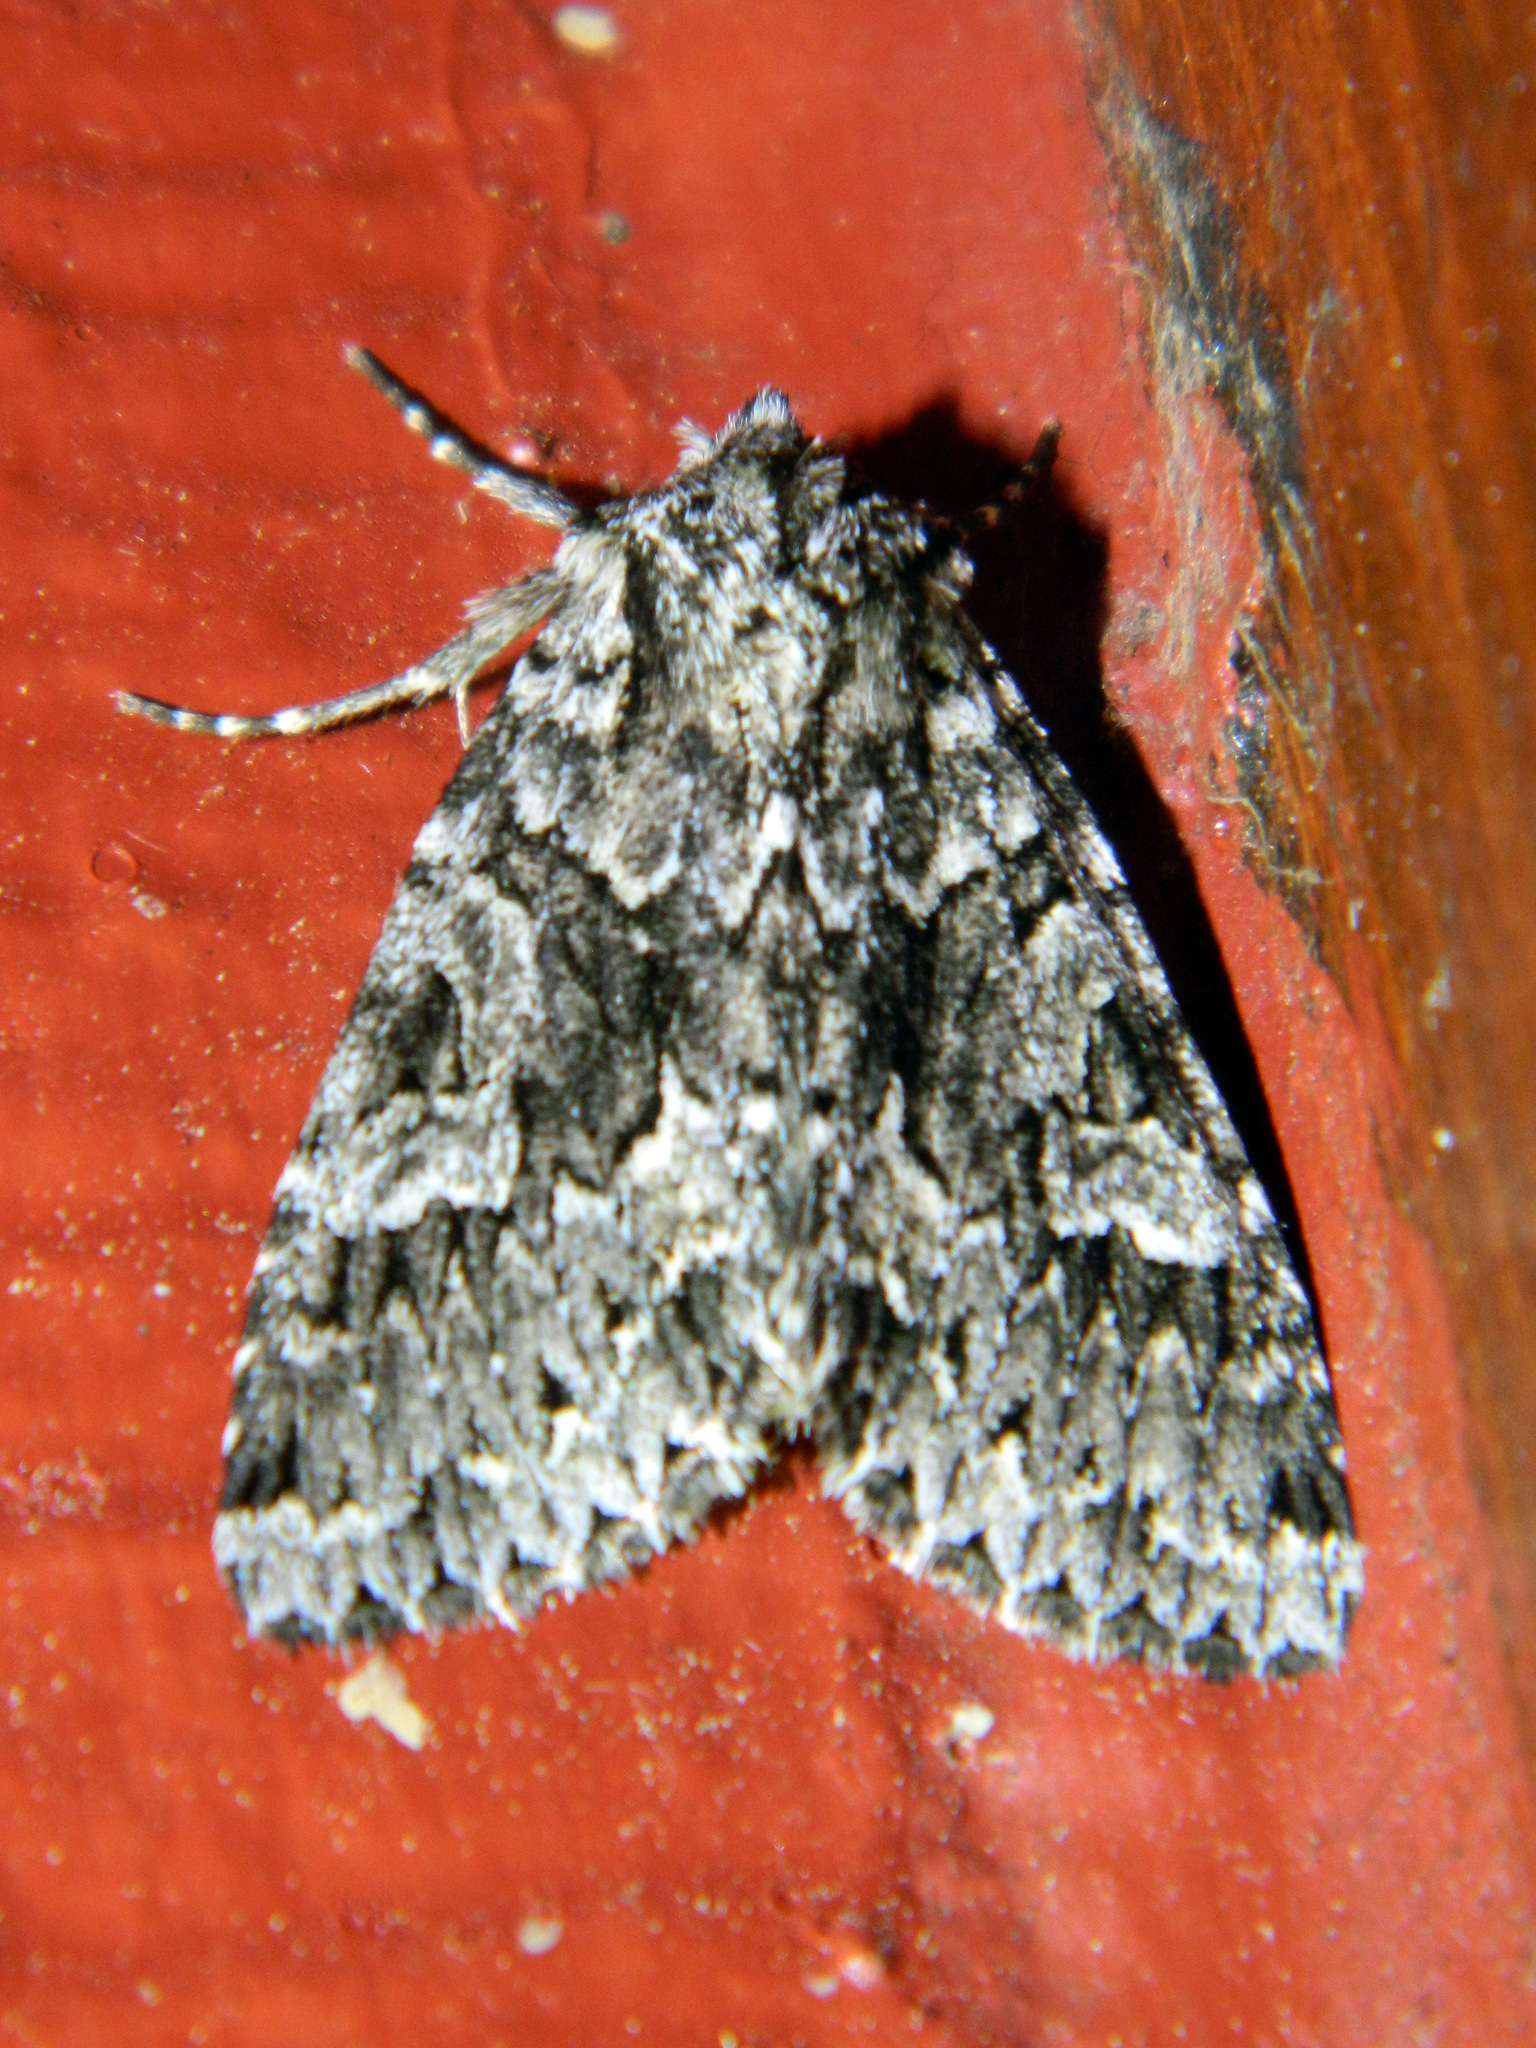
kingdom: Animalia
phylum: Arthropoda
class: Insecta
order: Lepidoptera
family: Noctuidae
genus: Platypolia
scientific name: Platypolia anceps
